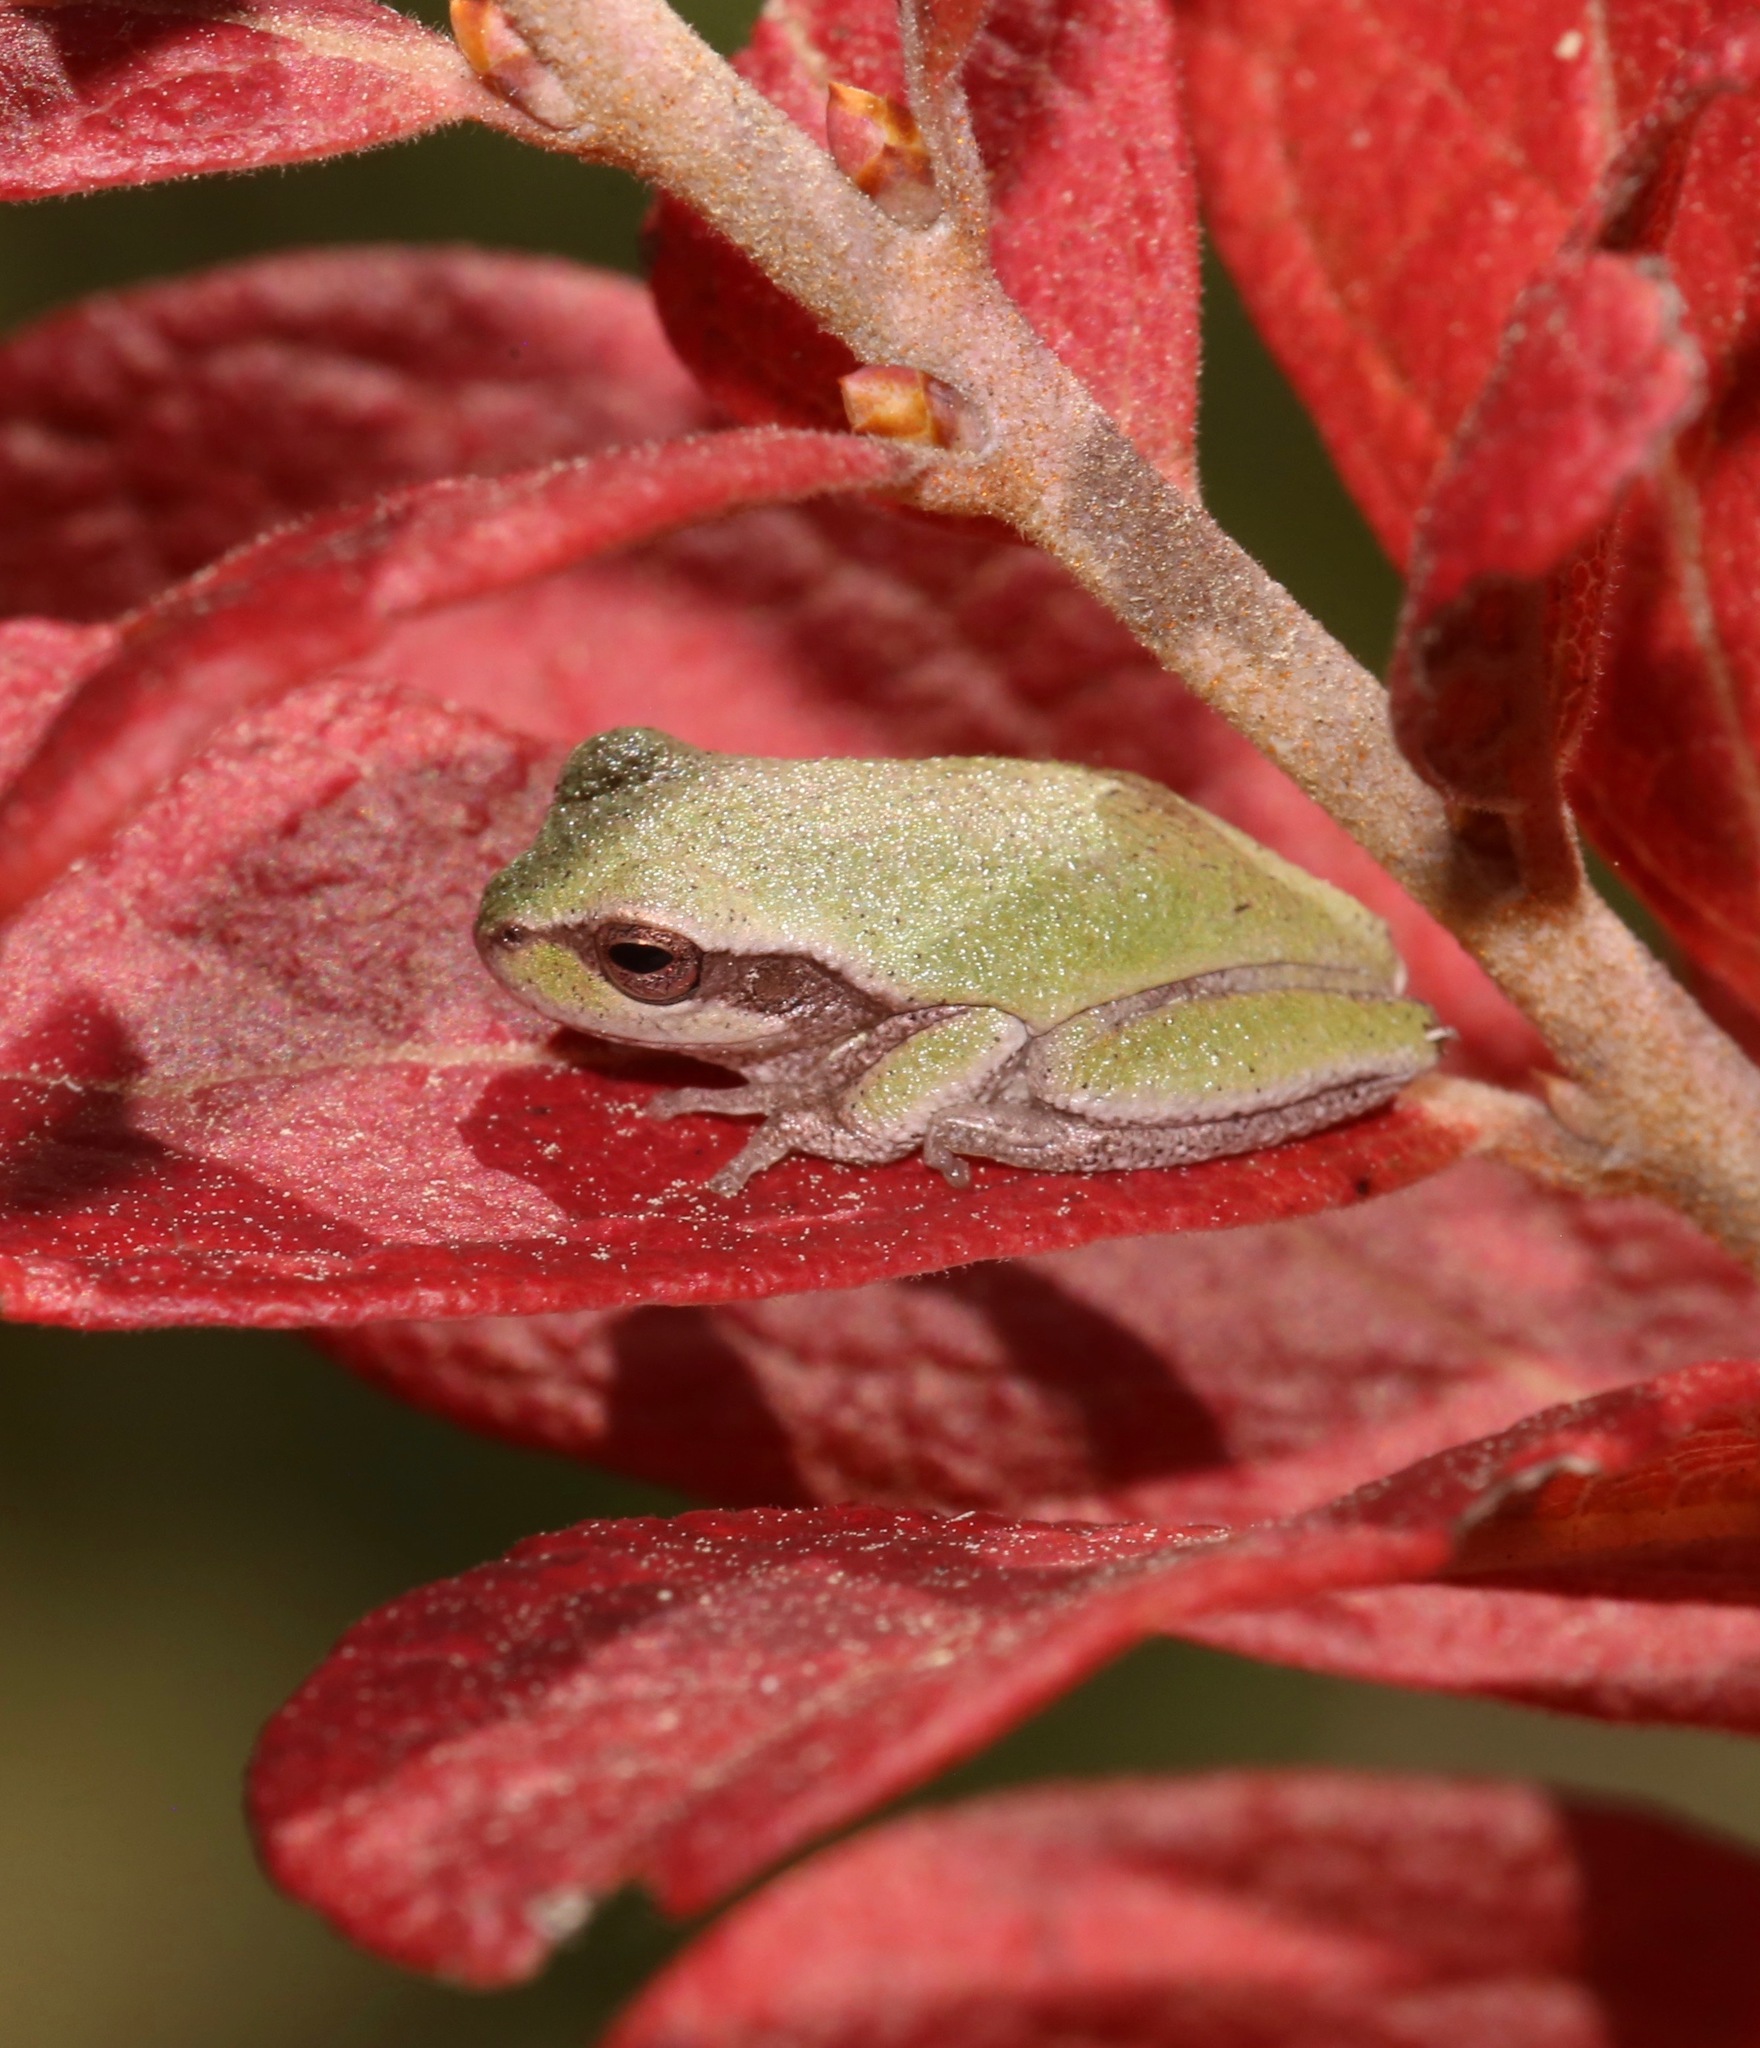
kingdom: Animalia
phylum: Chordata
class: Amphibia
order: Anura
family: Hylidae
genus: Hyla
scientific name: Hyla femoralis
